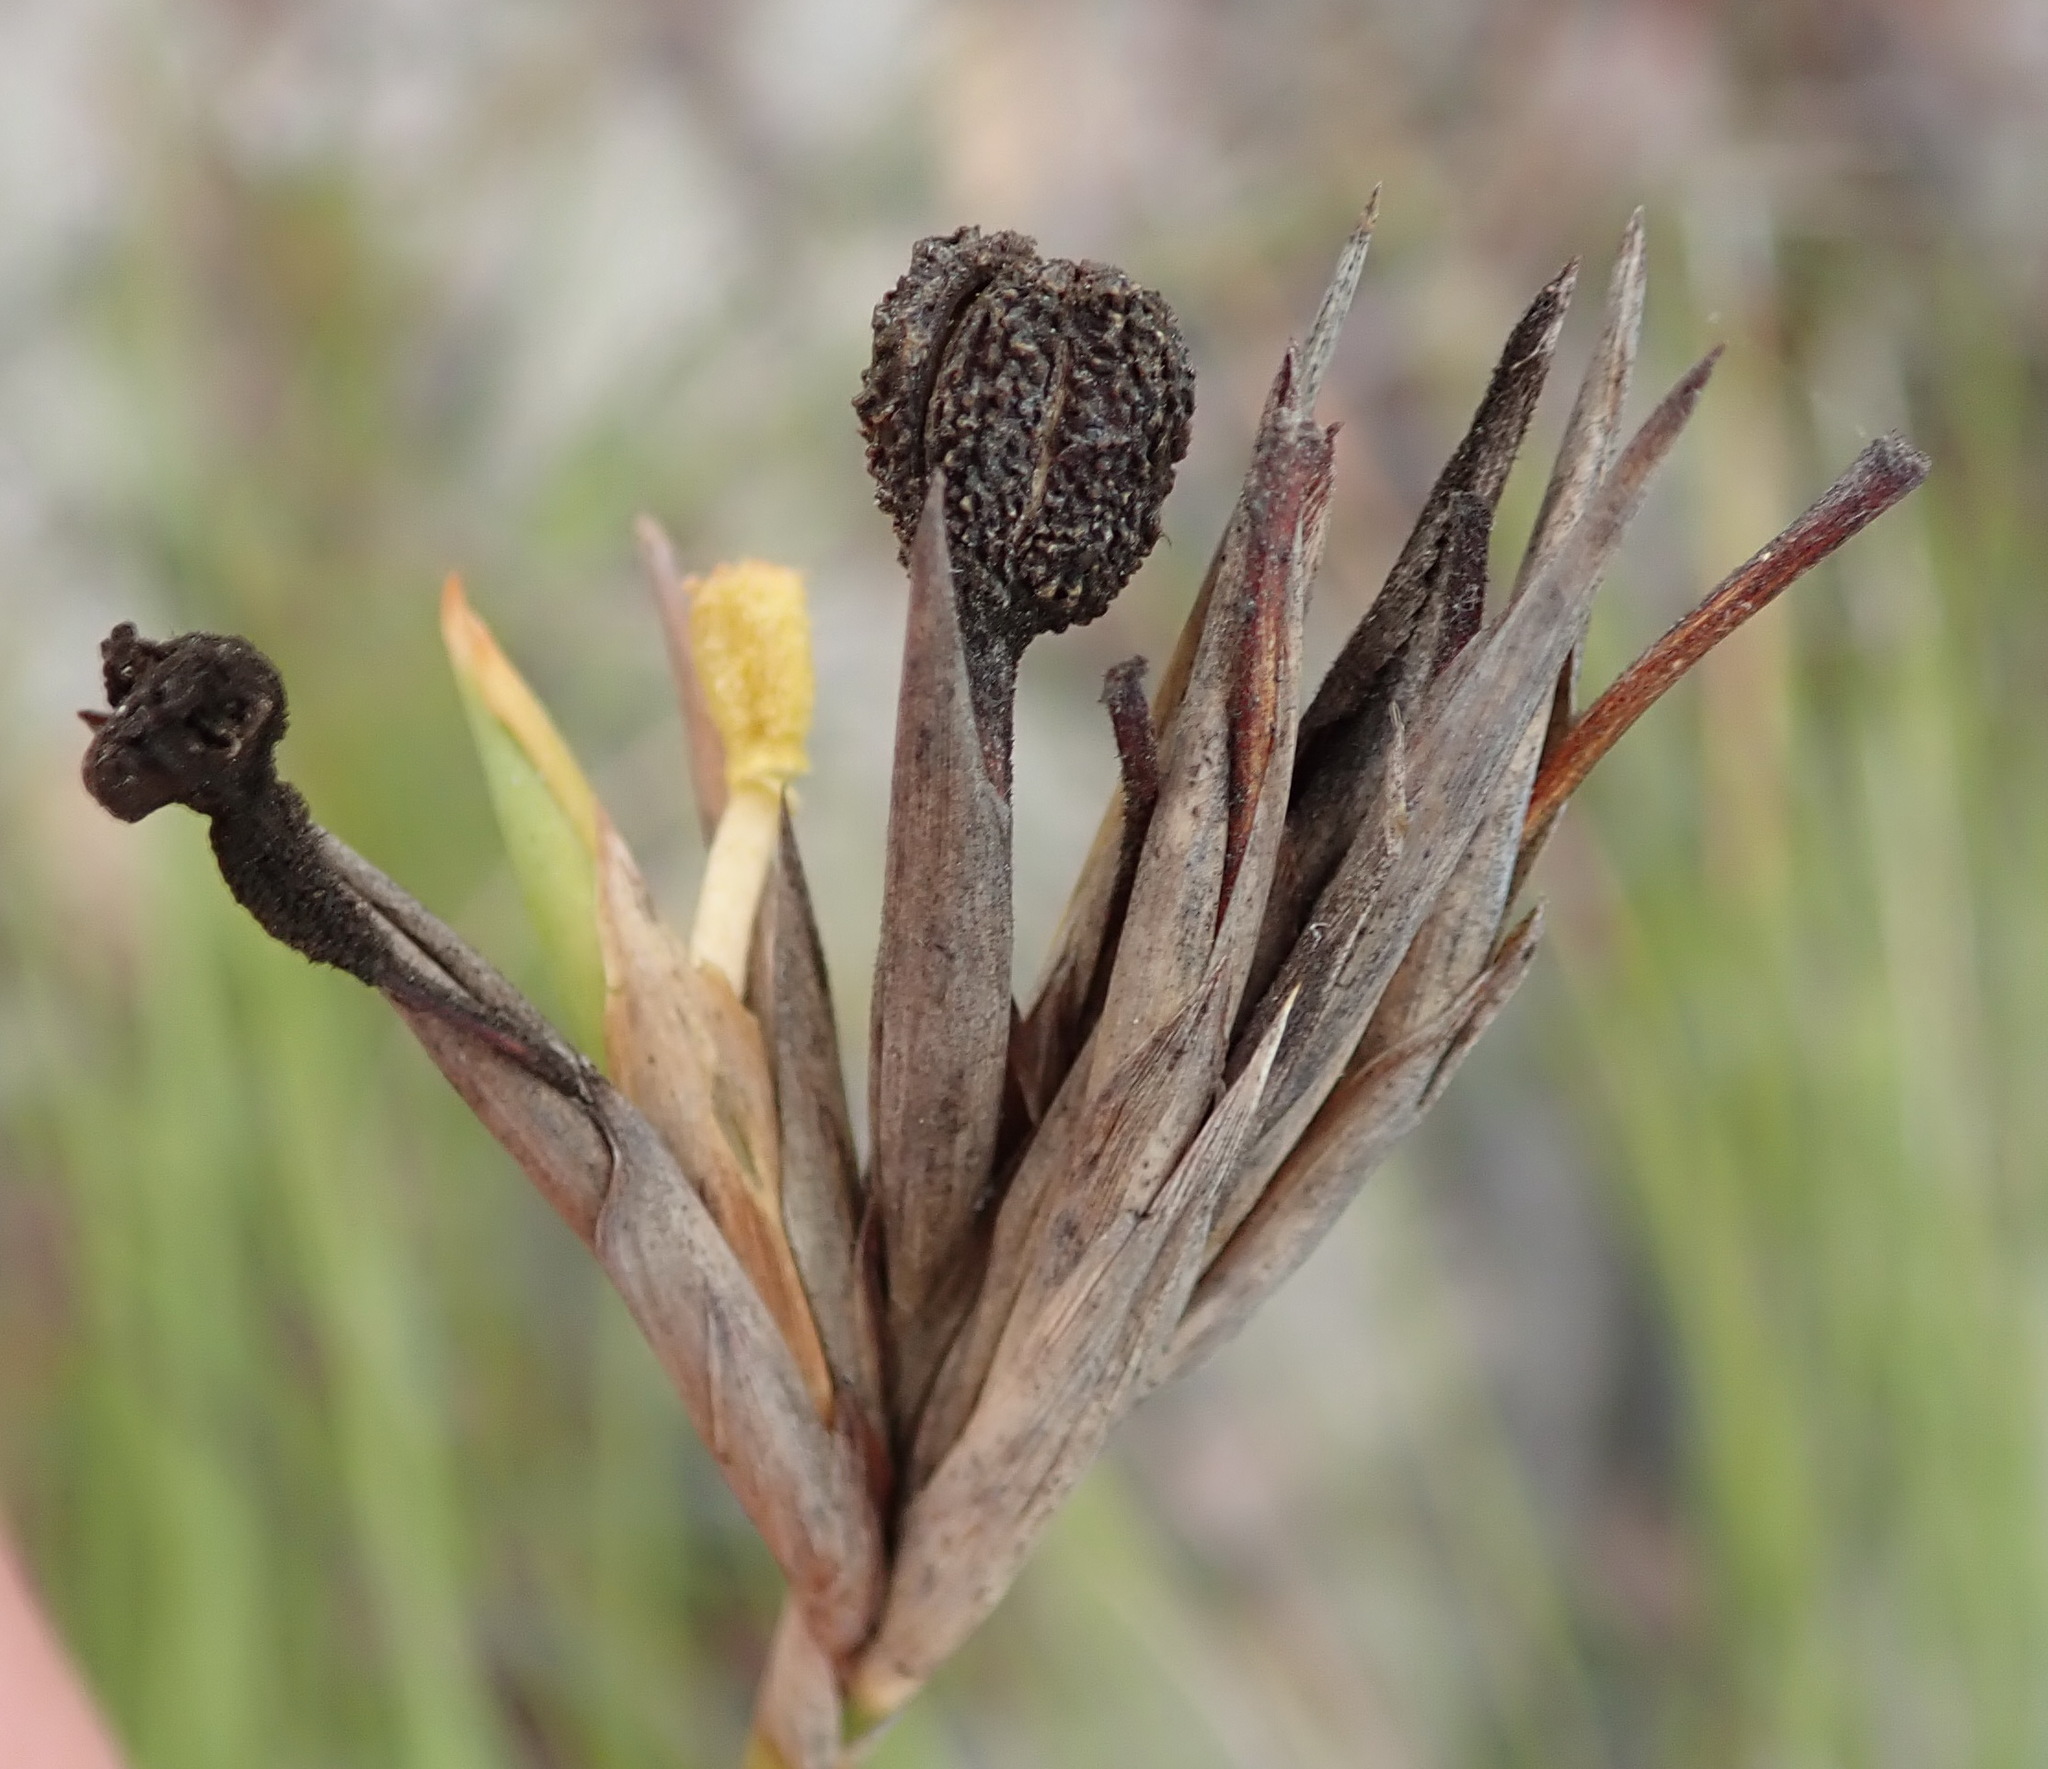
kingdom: Plantae
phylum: Tracheophyta
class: Liliopsida
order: Asparagales
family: Iridaceae
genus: Bobartia
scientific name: Bobartia aphylla
